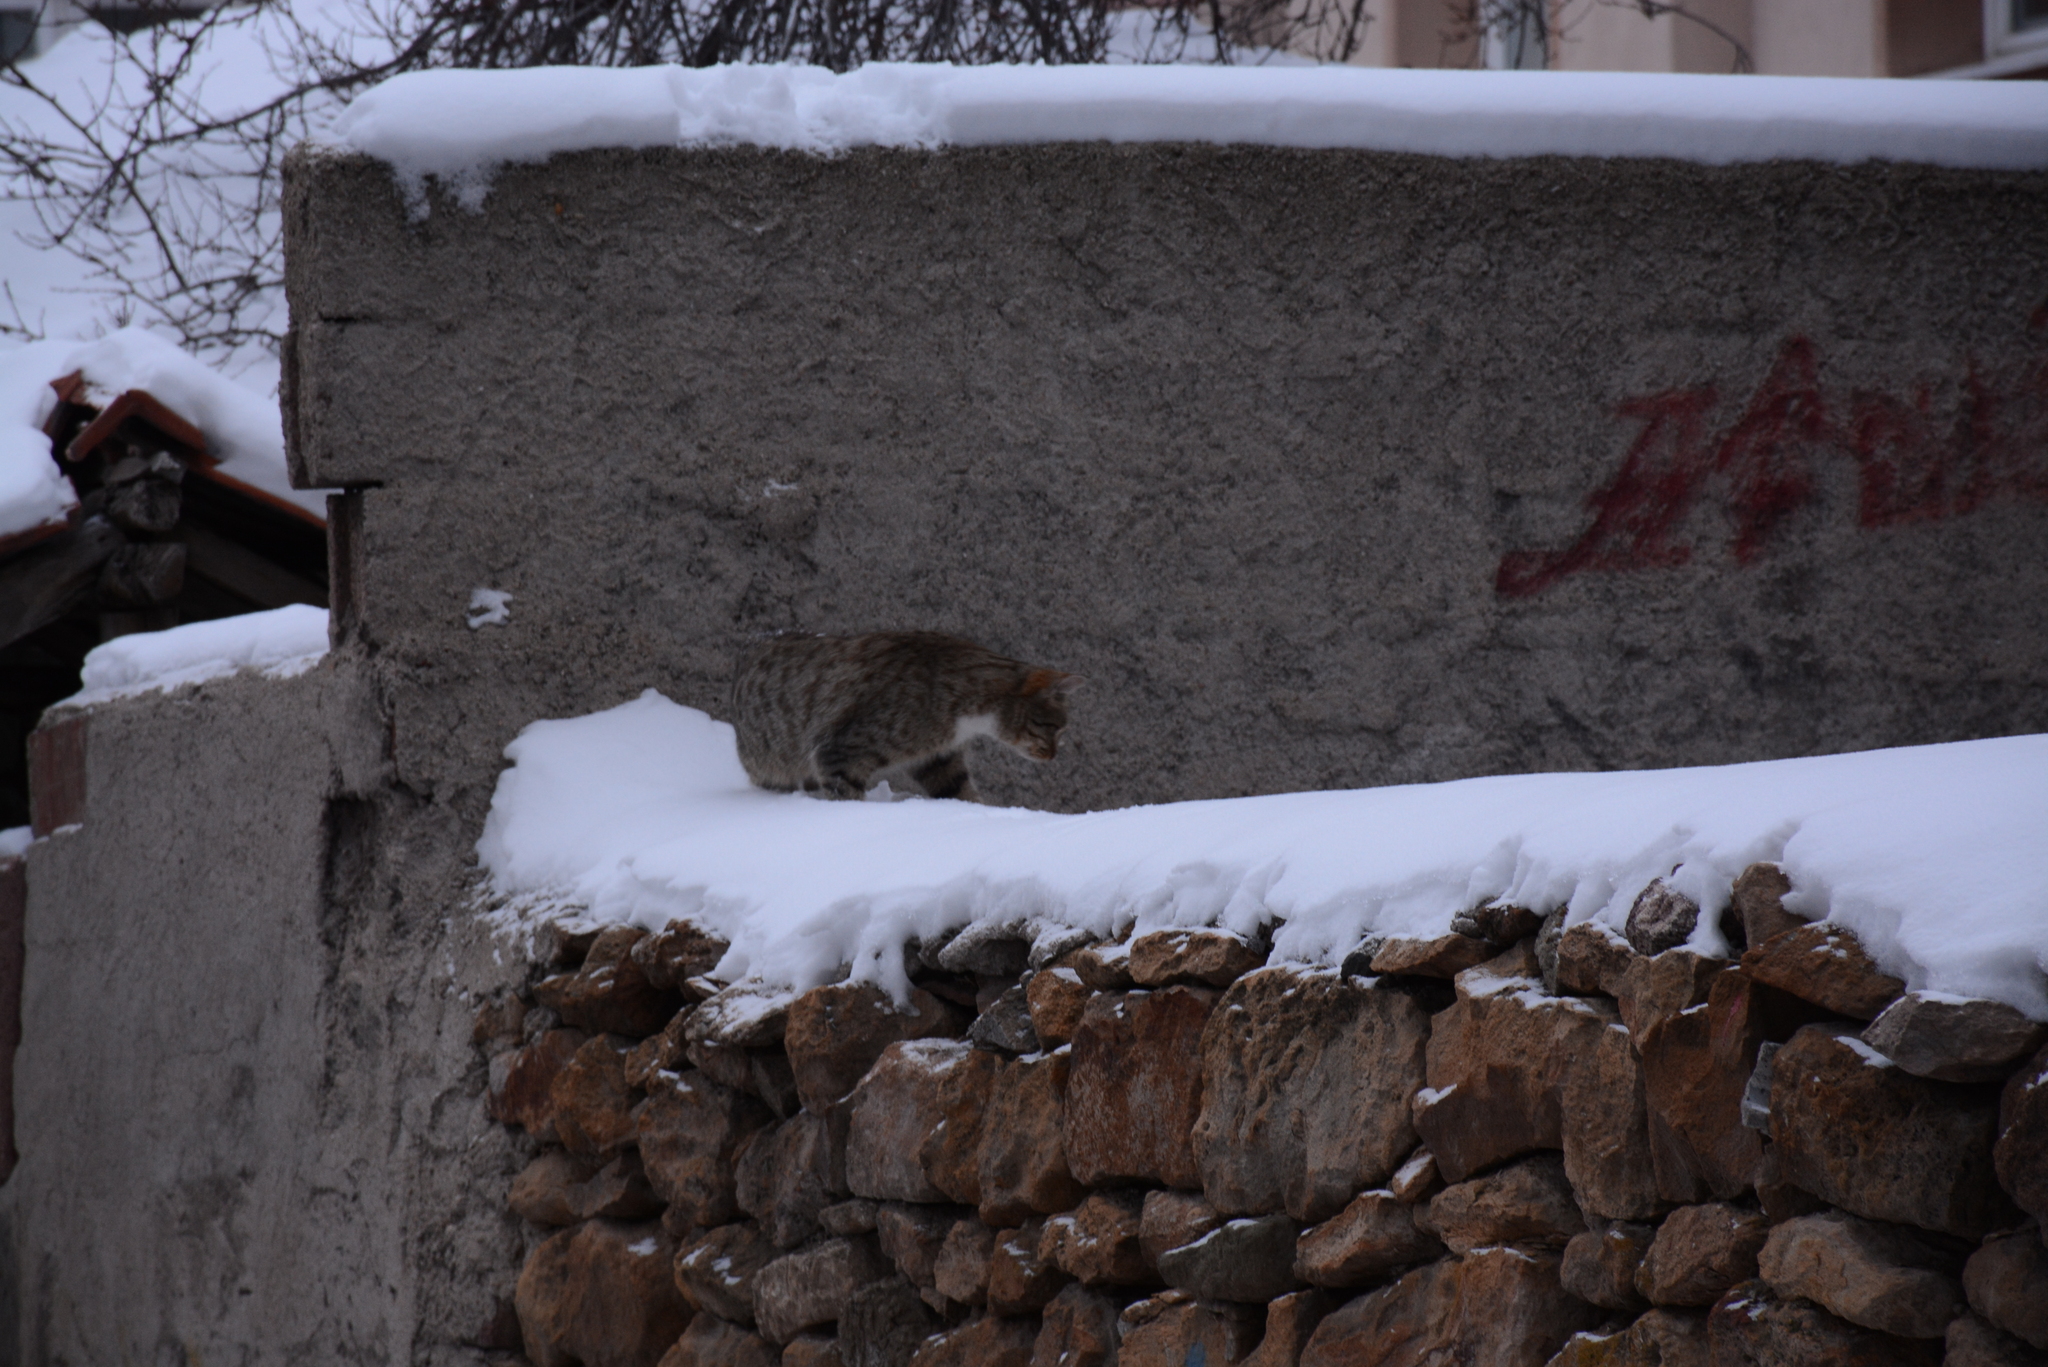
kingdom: Animalia
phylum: Chordata
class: Mammalia
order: Carnivora
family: Felidae
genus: Felis
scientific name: Felis catus
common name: Domestic cat
